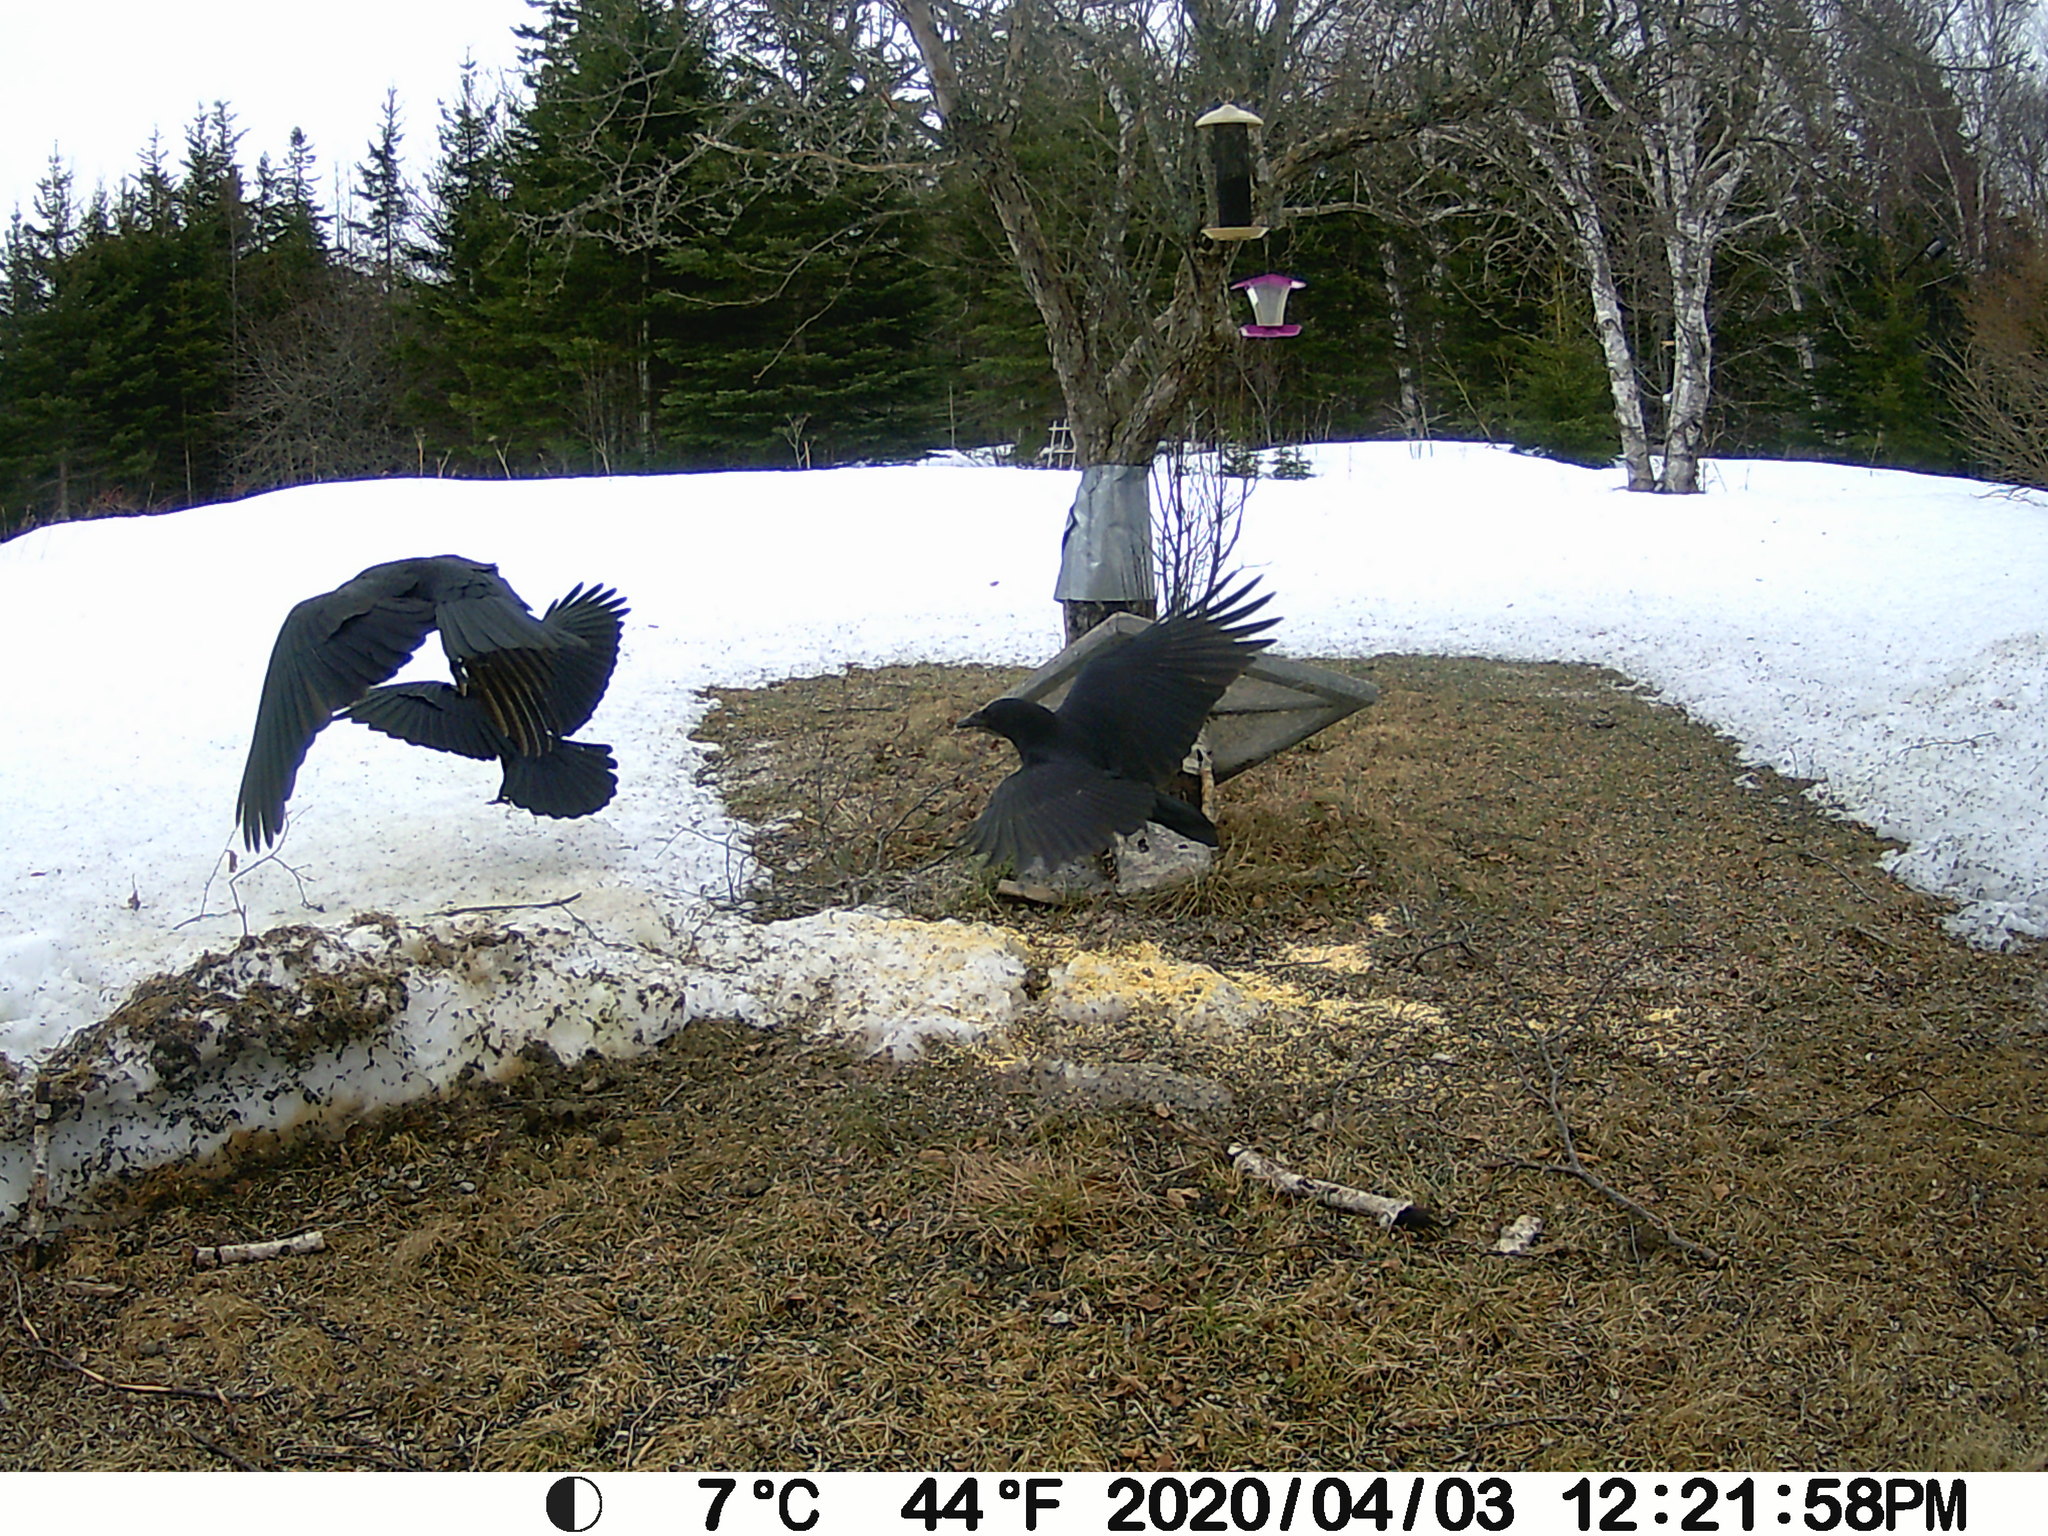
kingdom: Animalia
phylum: Chordata
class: Aves
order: Passeriformes
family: Corvidae
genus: Corvus
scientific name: Corvus brachyrhynchos
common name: American crow
